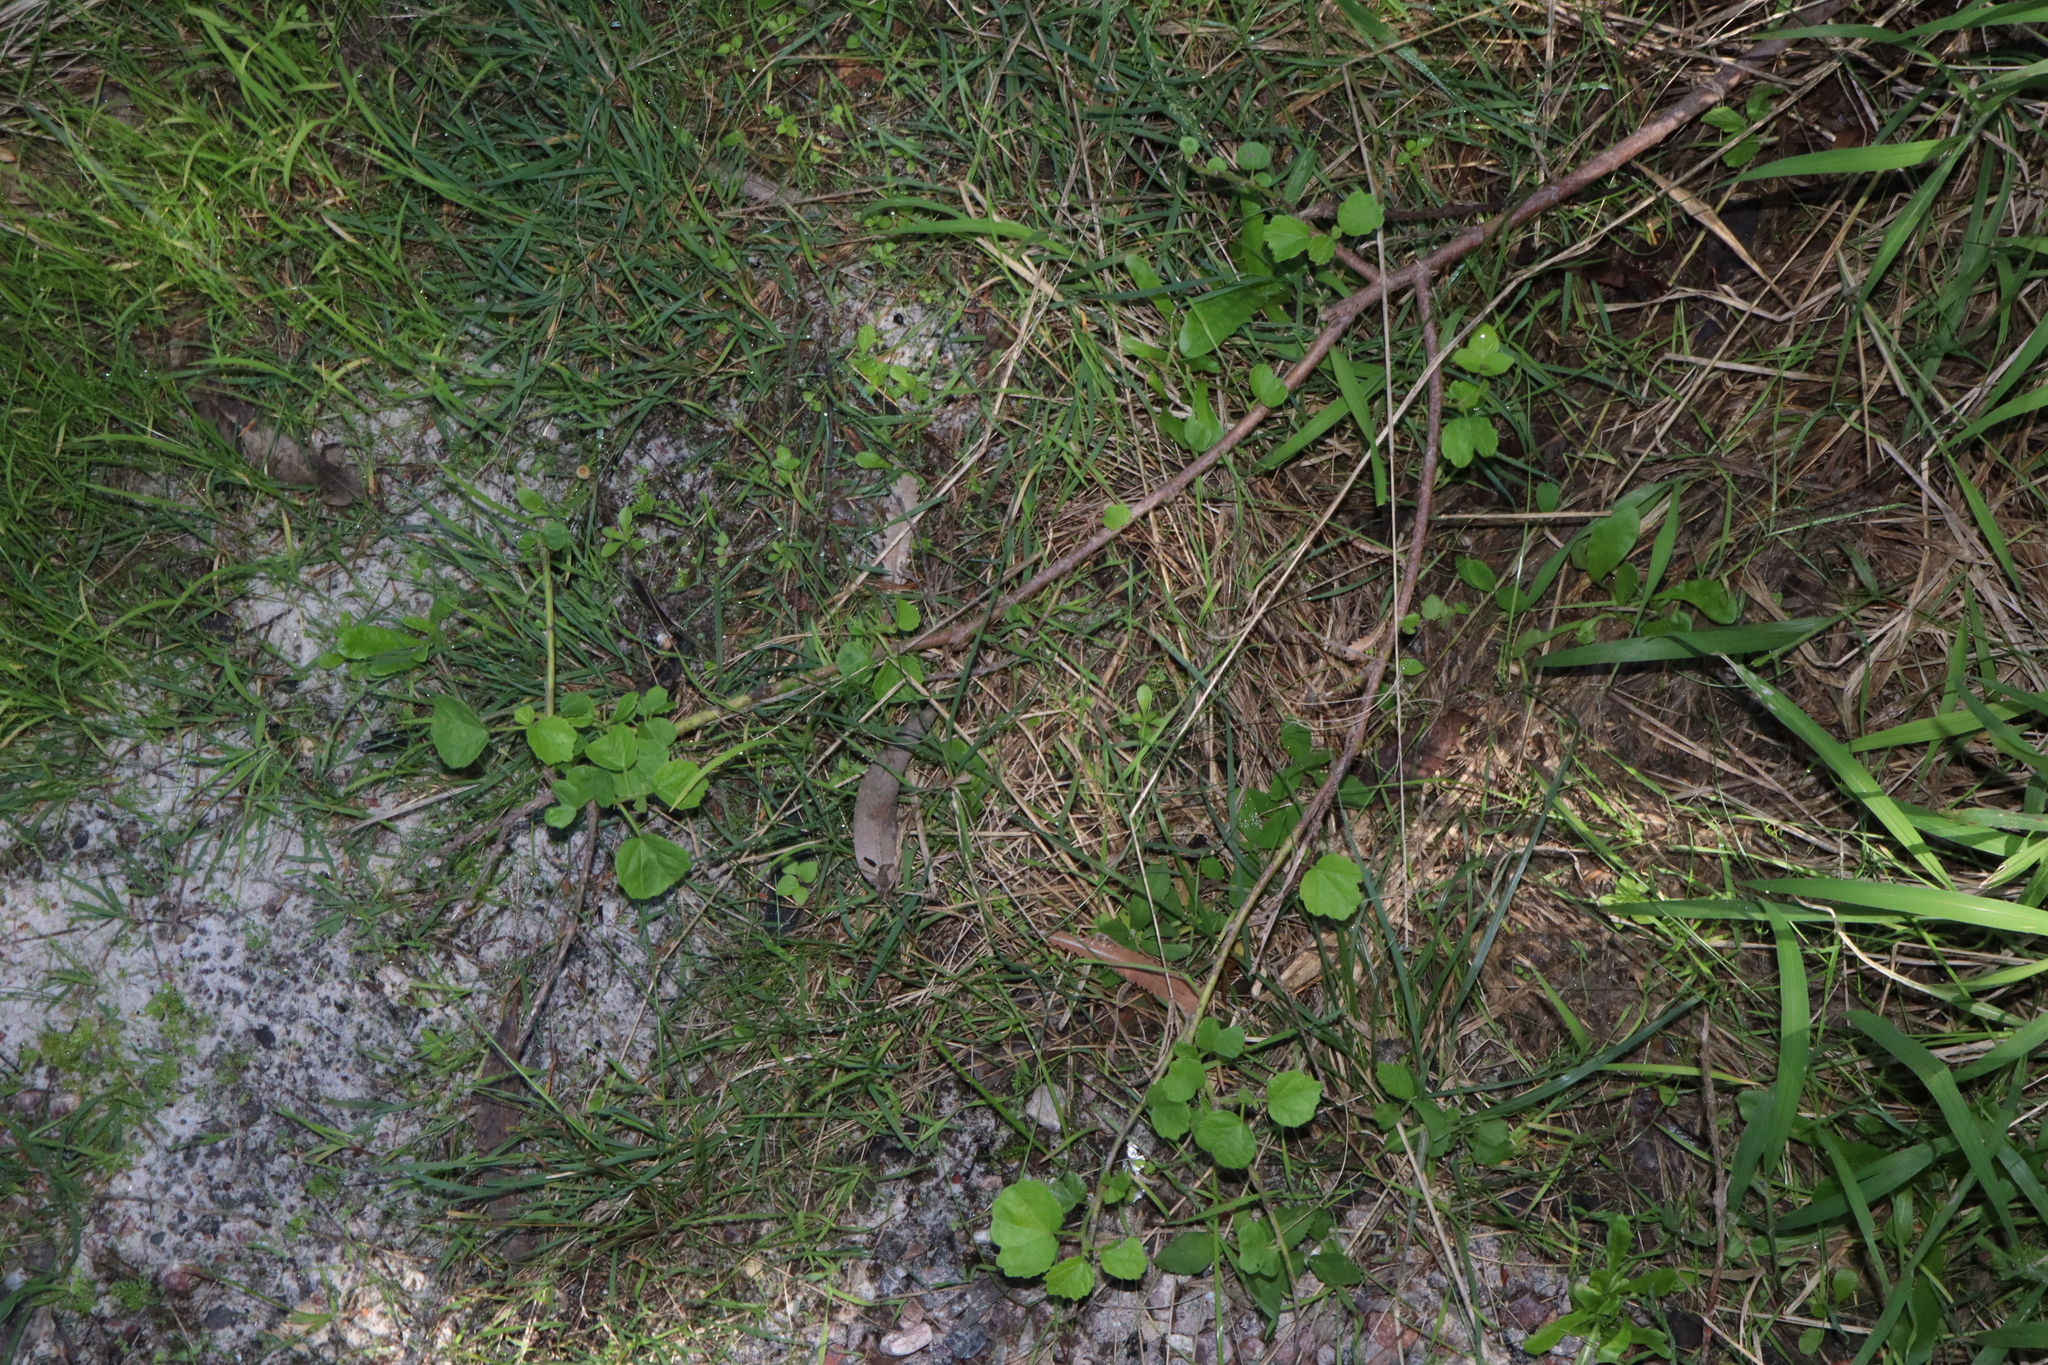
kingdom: Plantae
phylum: Tracheophyta
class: Magnoliopsida
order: Malvales
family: Malvaceae
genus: Hibiscus
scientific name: Hibiscus diversifolius
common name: Cape hibiscus
